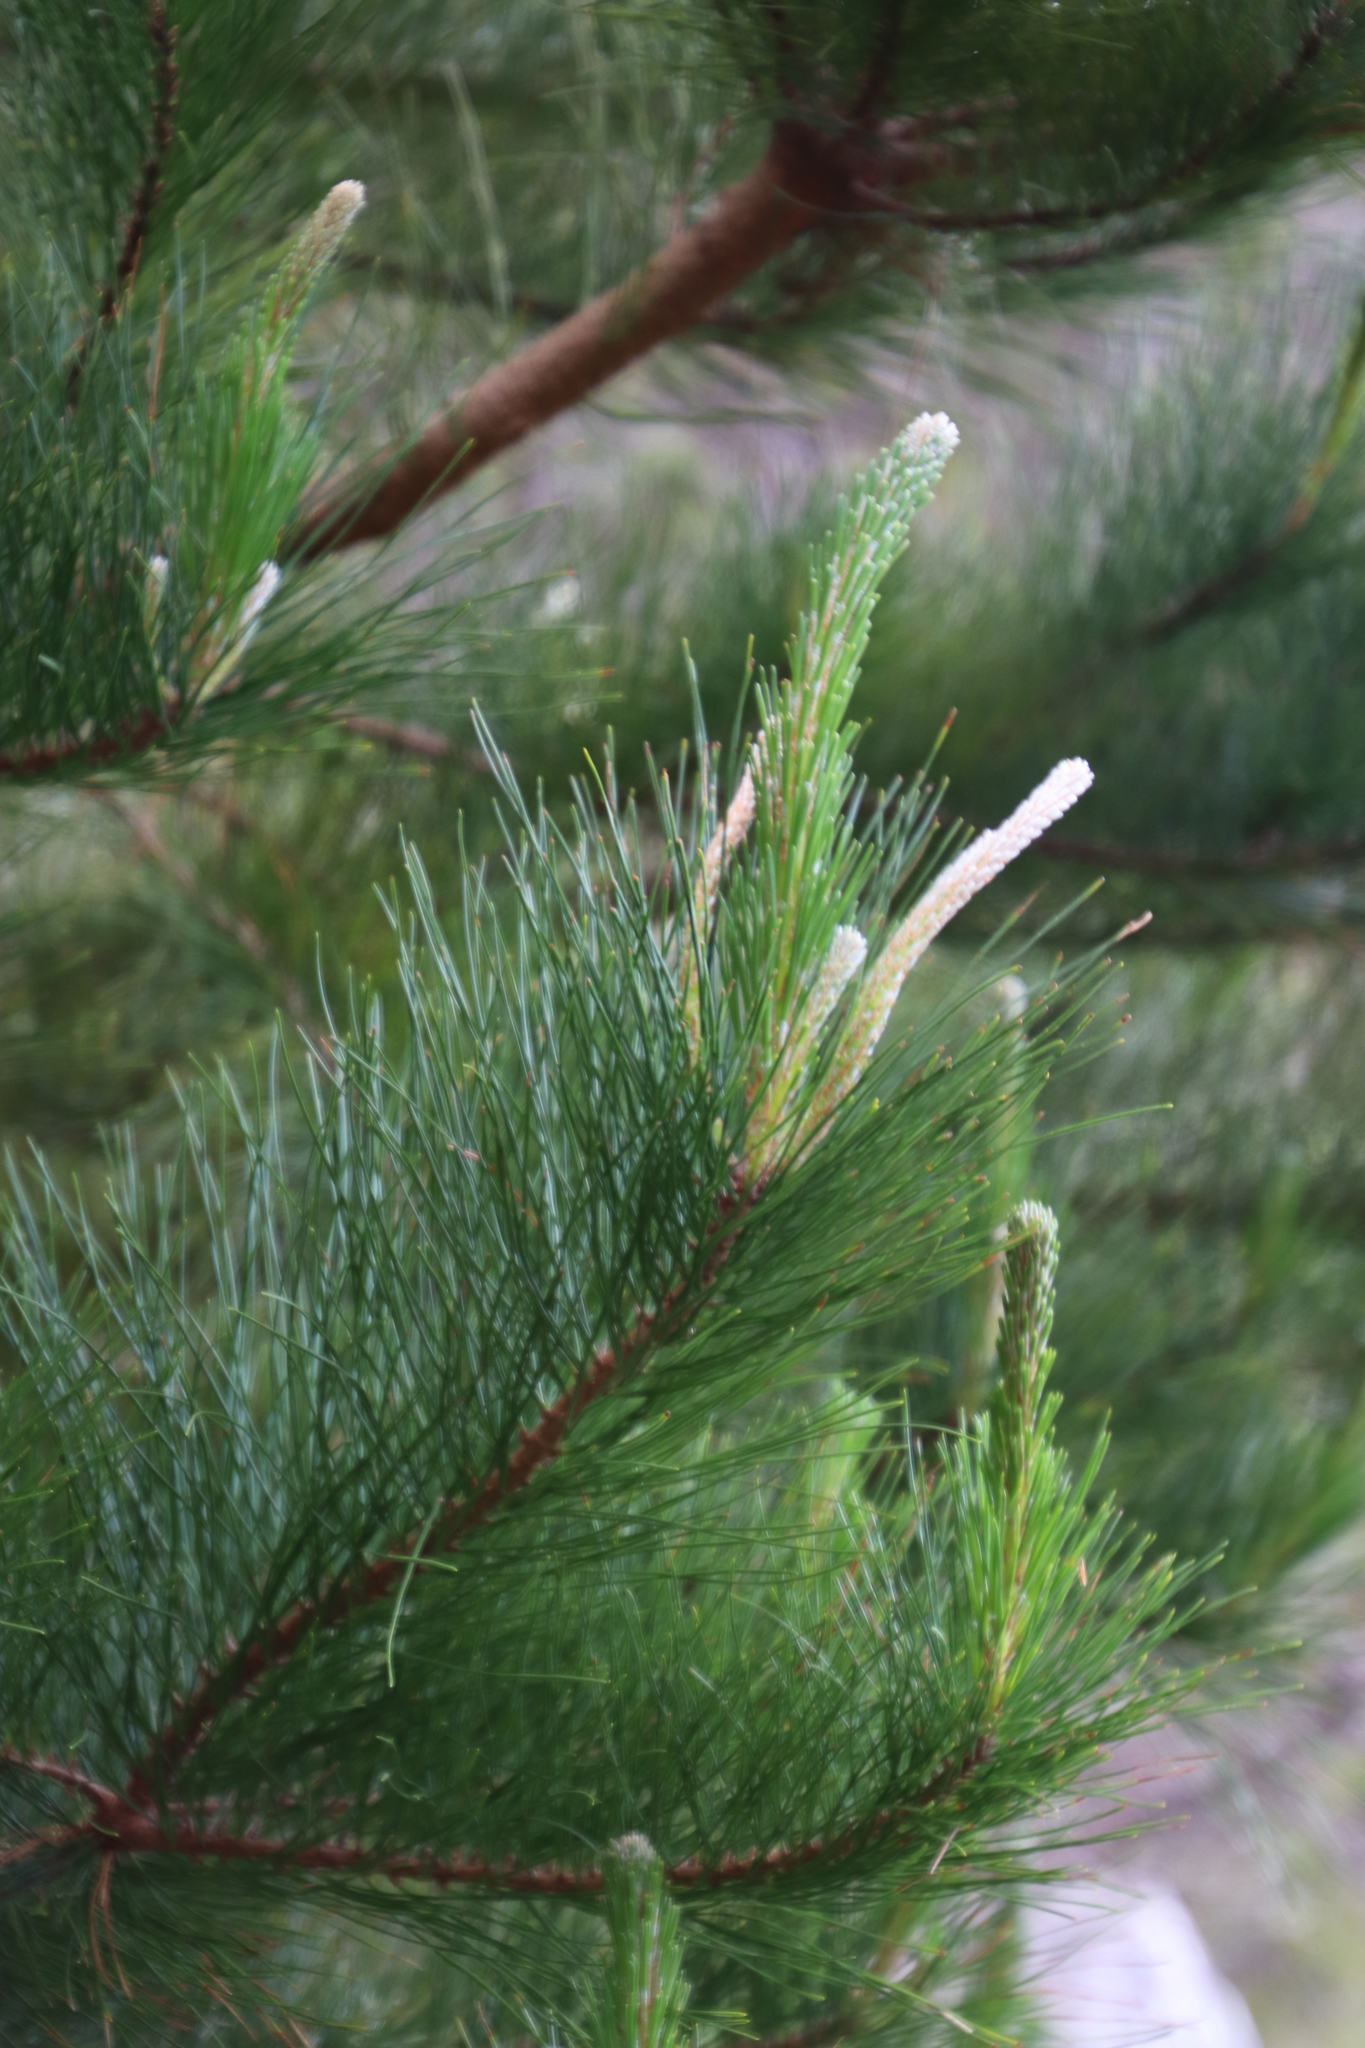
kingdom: Plantae
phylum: Tracheophyta
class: Pinopsida
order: Pinales
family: Pinaceae
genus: Pinus
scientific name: Pinus radiata
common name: Monterey pine
